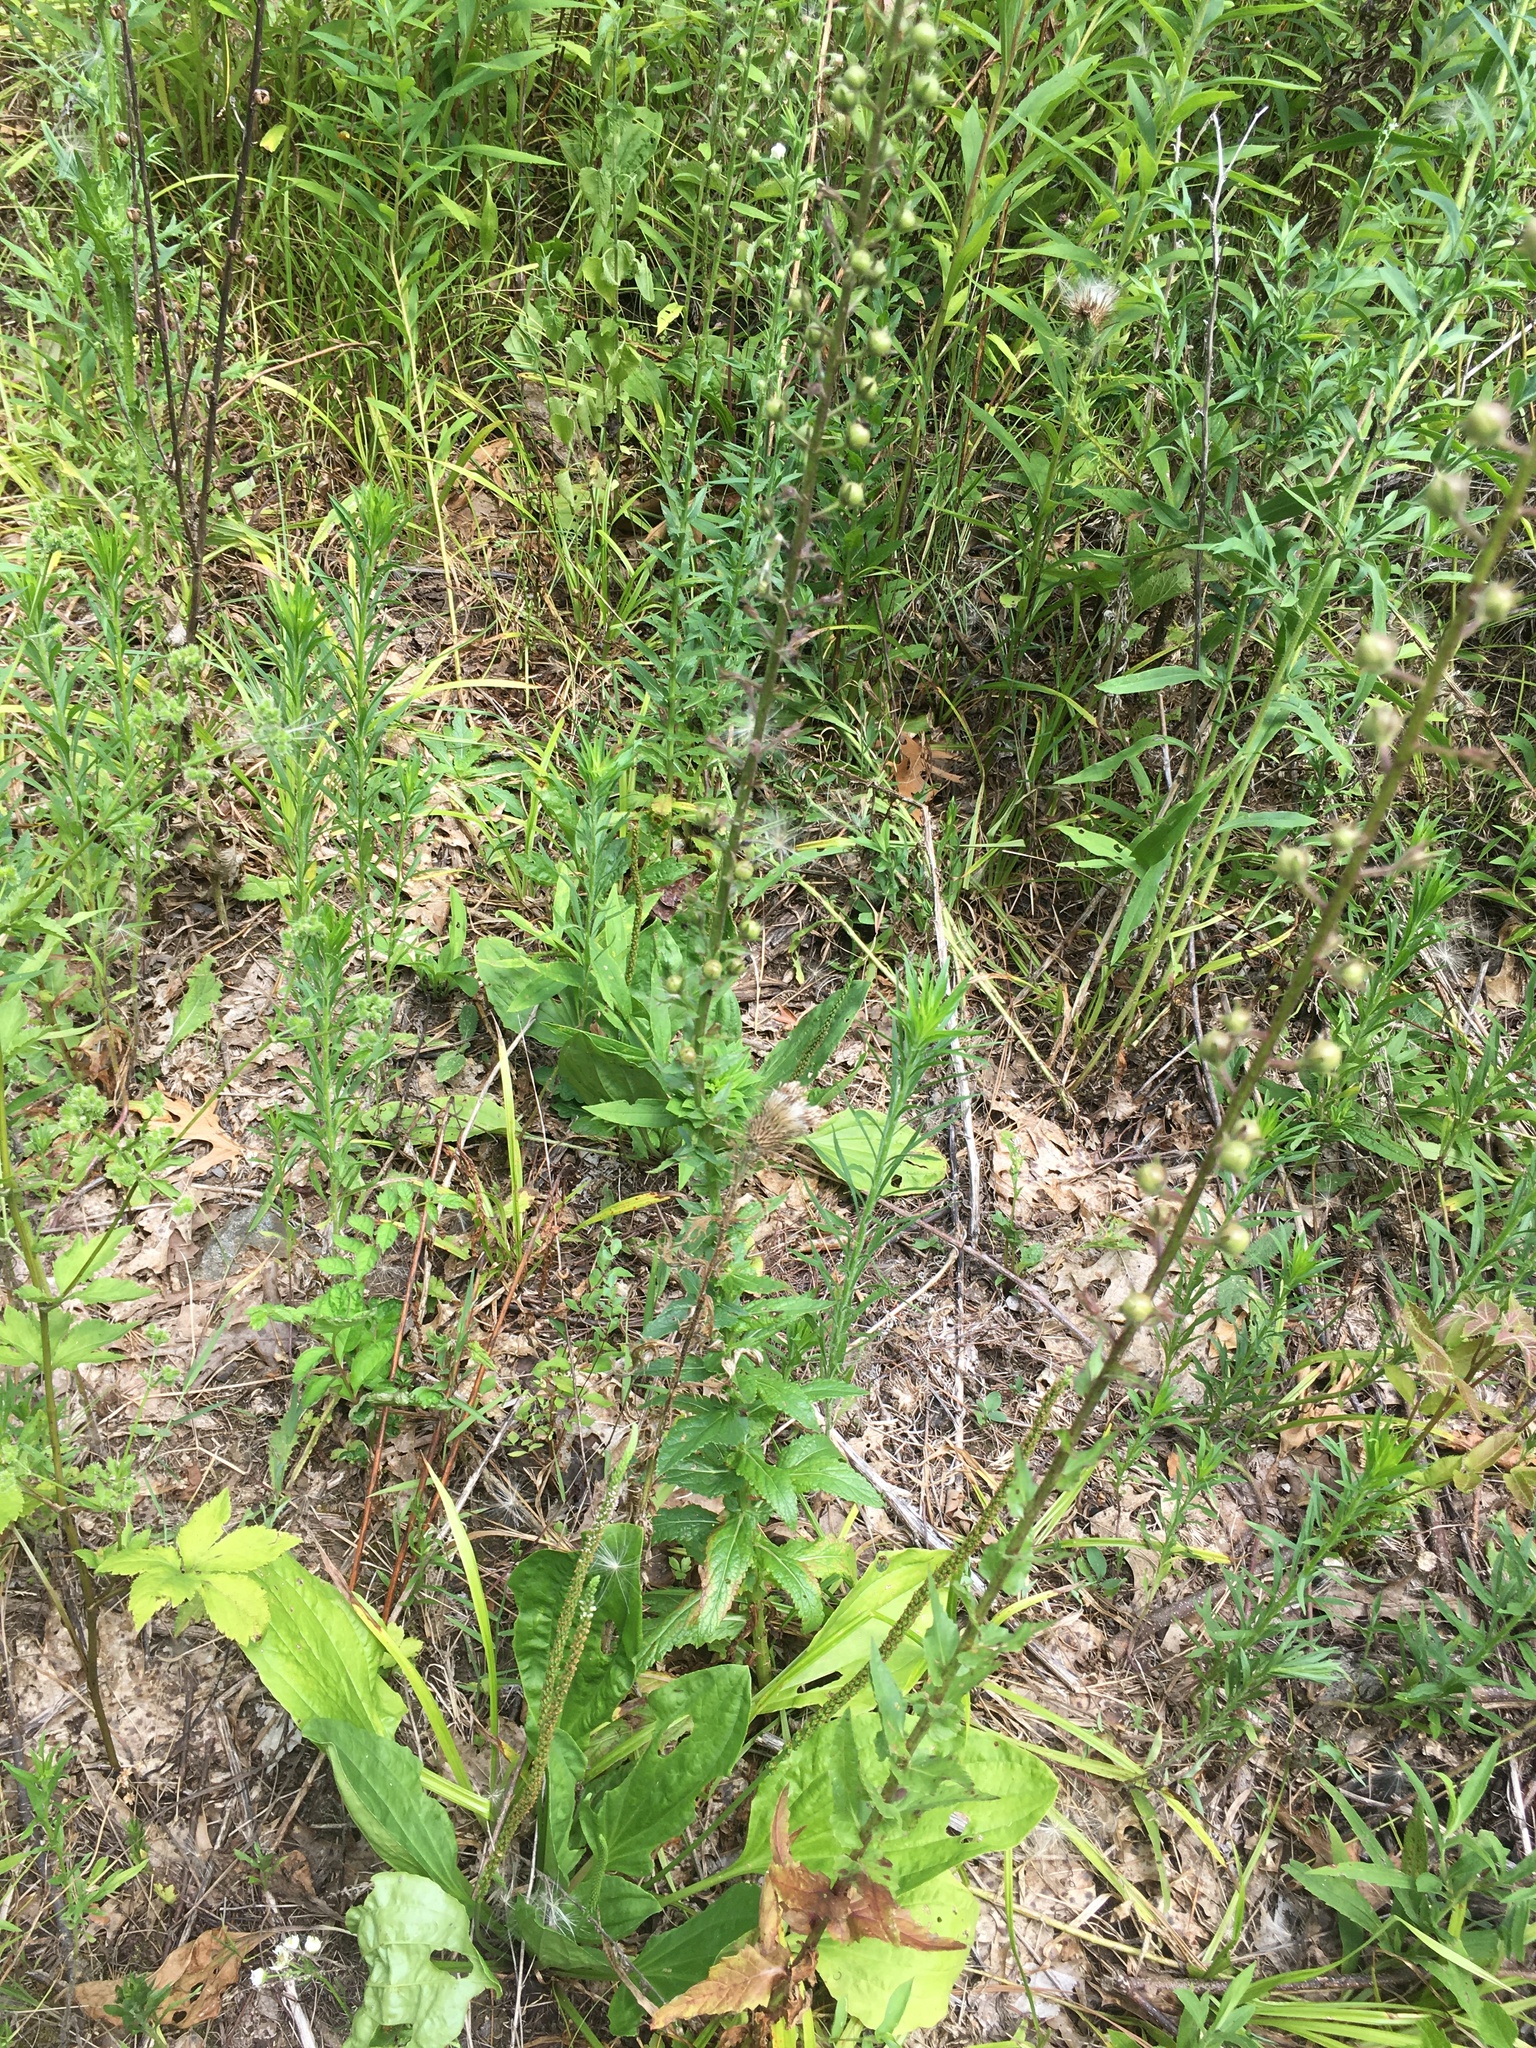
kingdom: Plantae
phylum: Tracheophyta
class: Magnoliopsida
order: Lamiales
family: Scrophulariaceae
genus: Verbascum
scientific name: Verbascum blattaria
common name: Moth mullein
